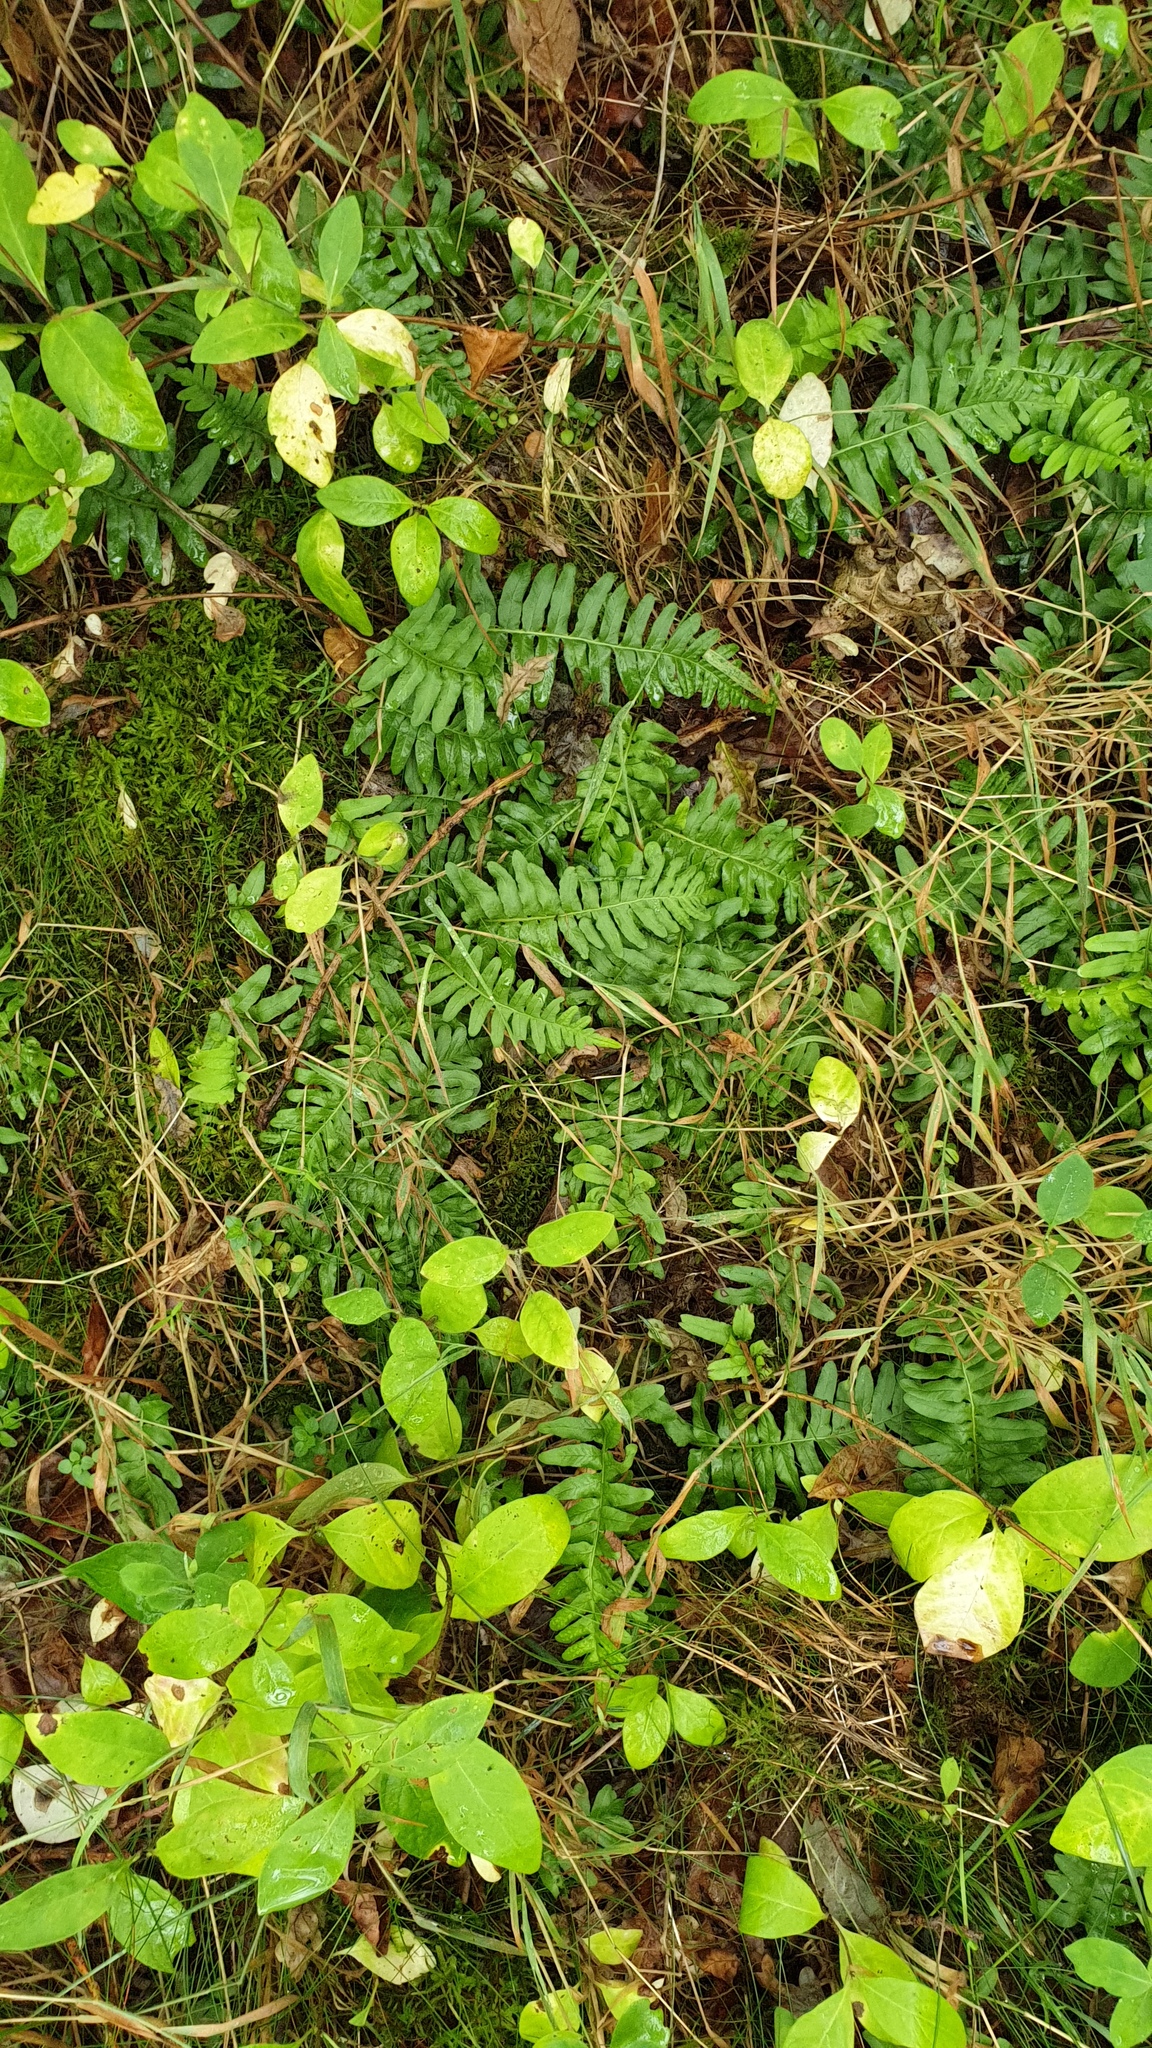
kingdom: Plantae
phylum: Tracheophyta
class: Polypodiopsida
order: Polypodiales
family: Polypodiaceae
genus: Polypodium
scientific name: Polypodium vulgare
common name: Common polypody
